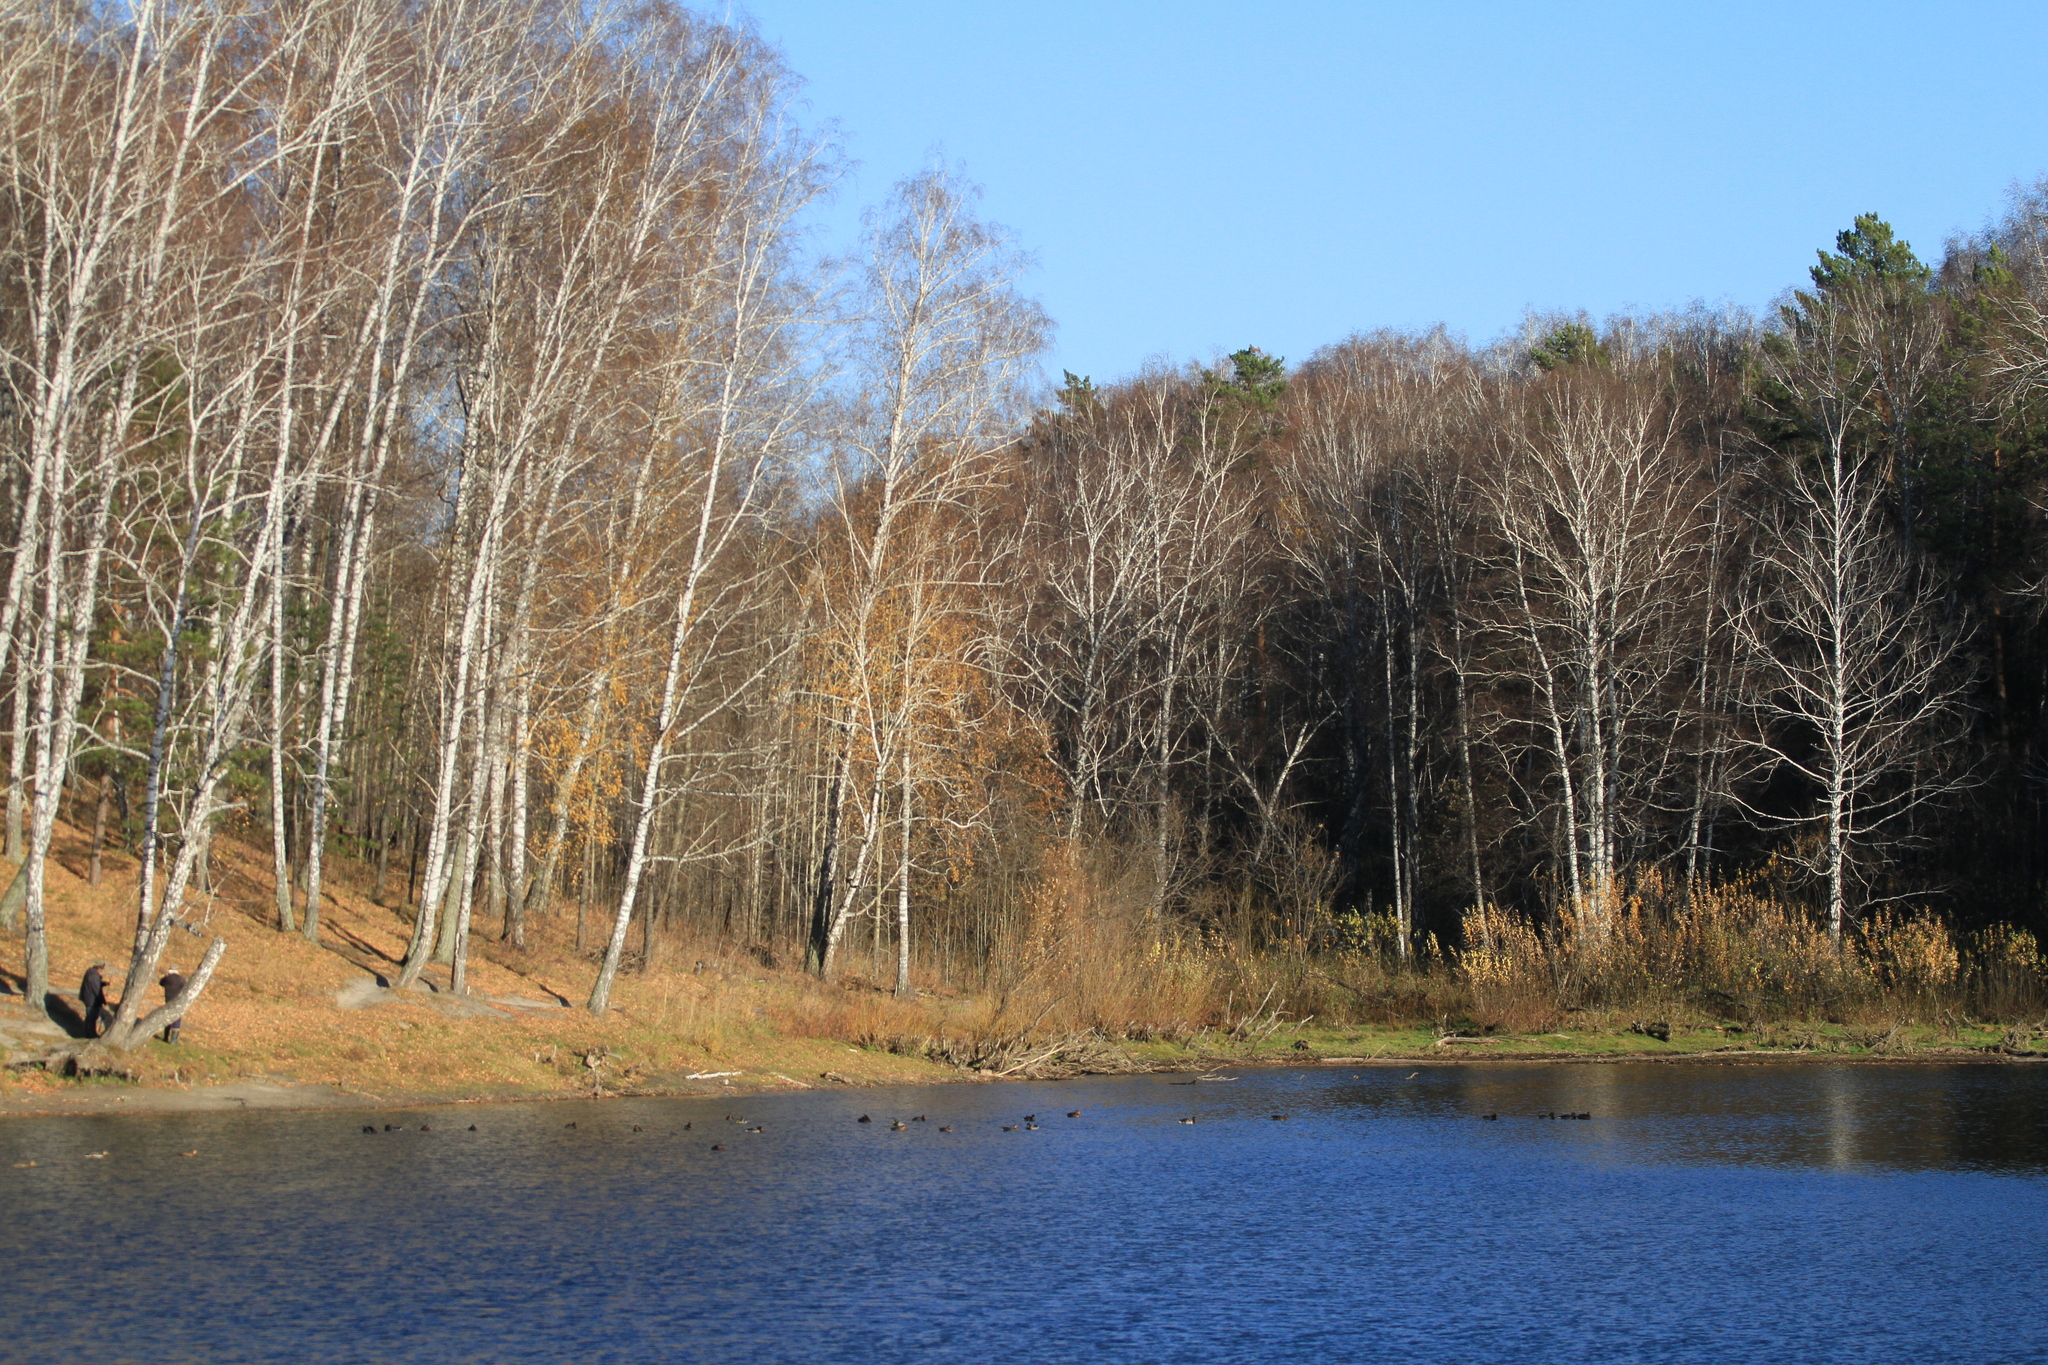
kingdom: Plantae
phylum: Tracheophyta
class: Magnoliopsida
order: Fagales
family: Betulaceae
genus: Betula
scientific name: Betula pendula
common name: Silver birch
